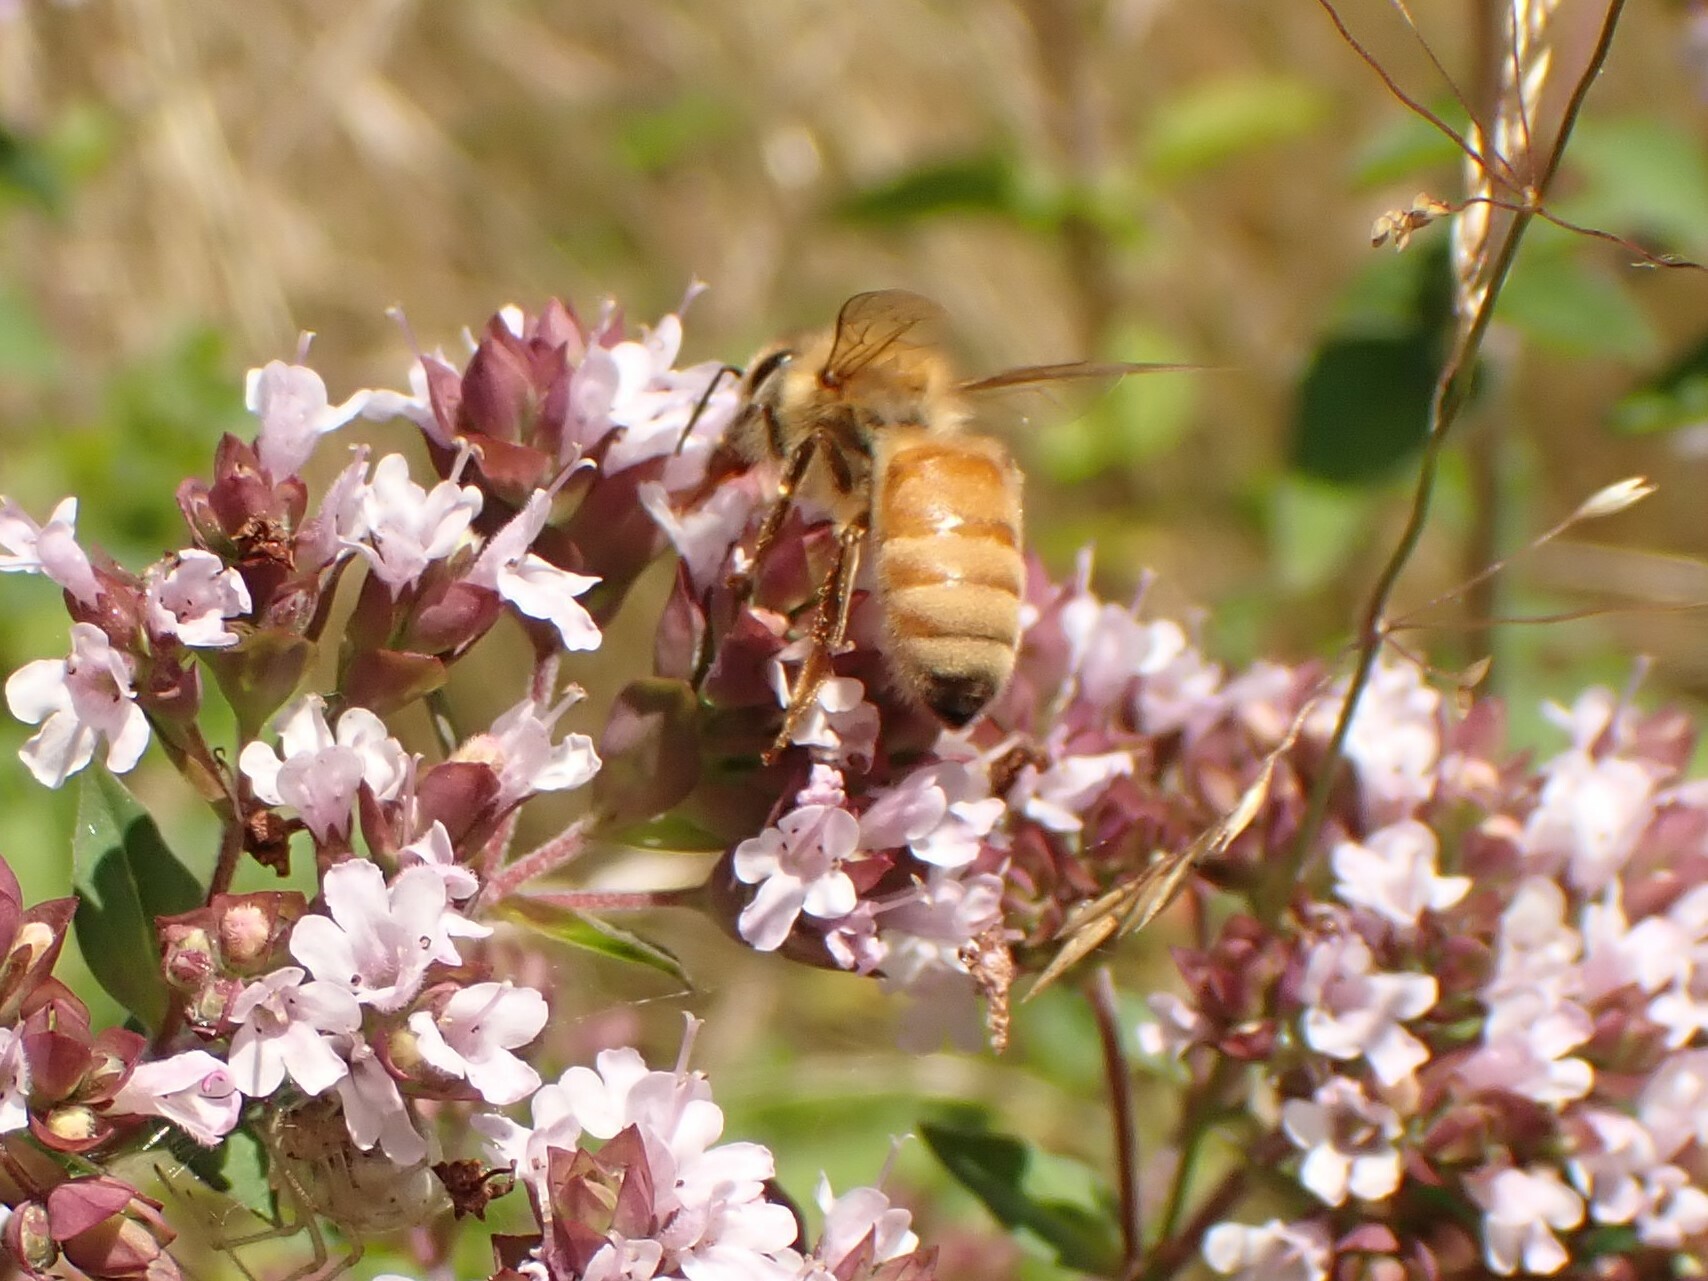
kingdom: Animalia
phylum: Arthropoda
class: Insecta
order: Hymenoptera
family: Apidae
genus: Apis
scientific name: Apis mellifera
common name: Honey bee
